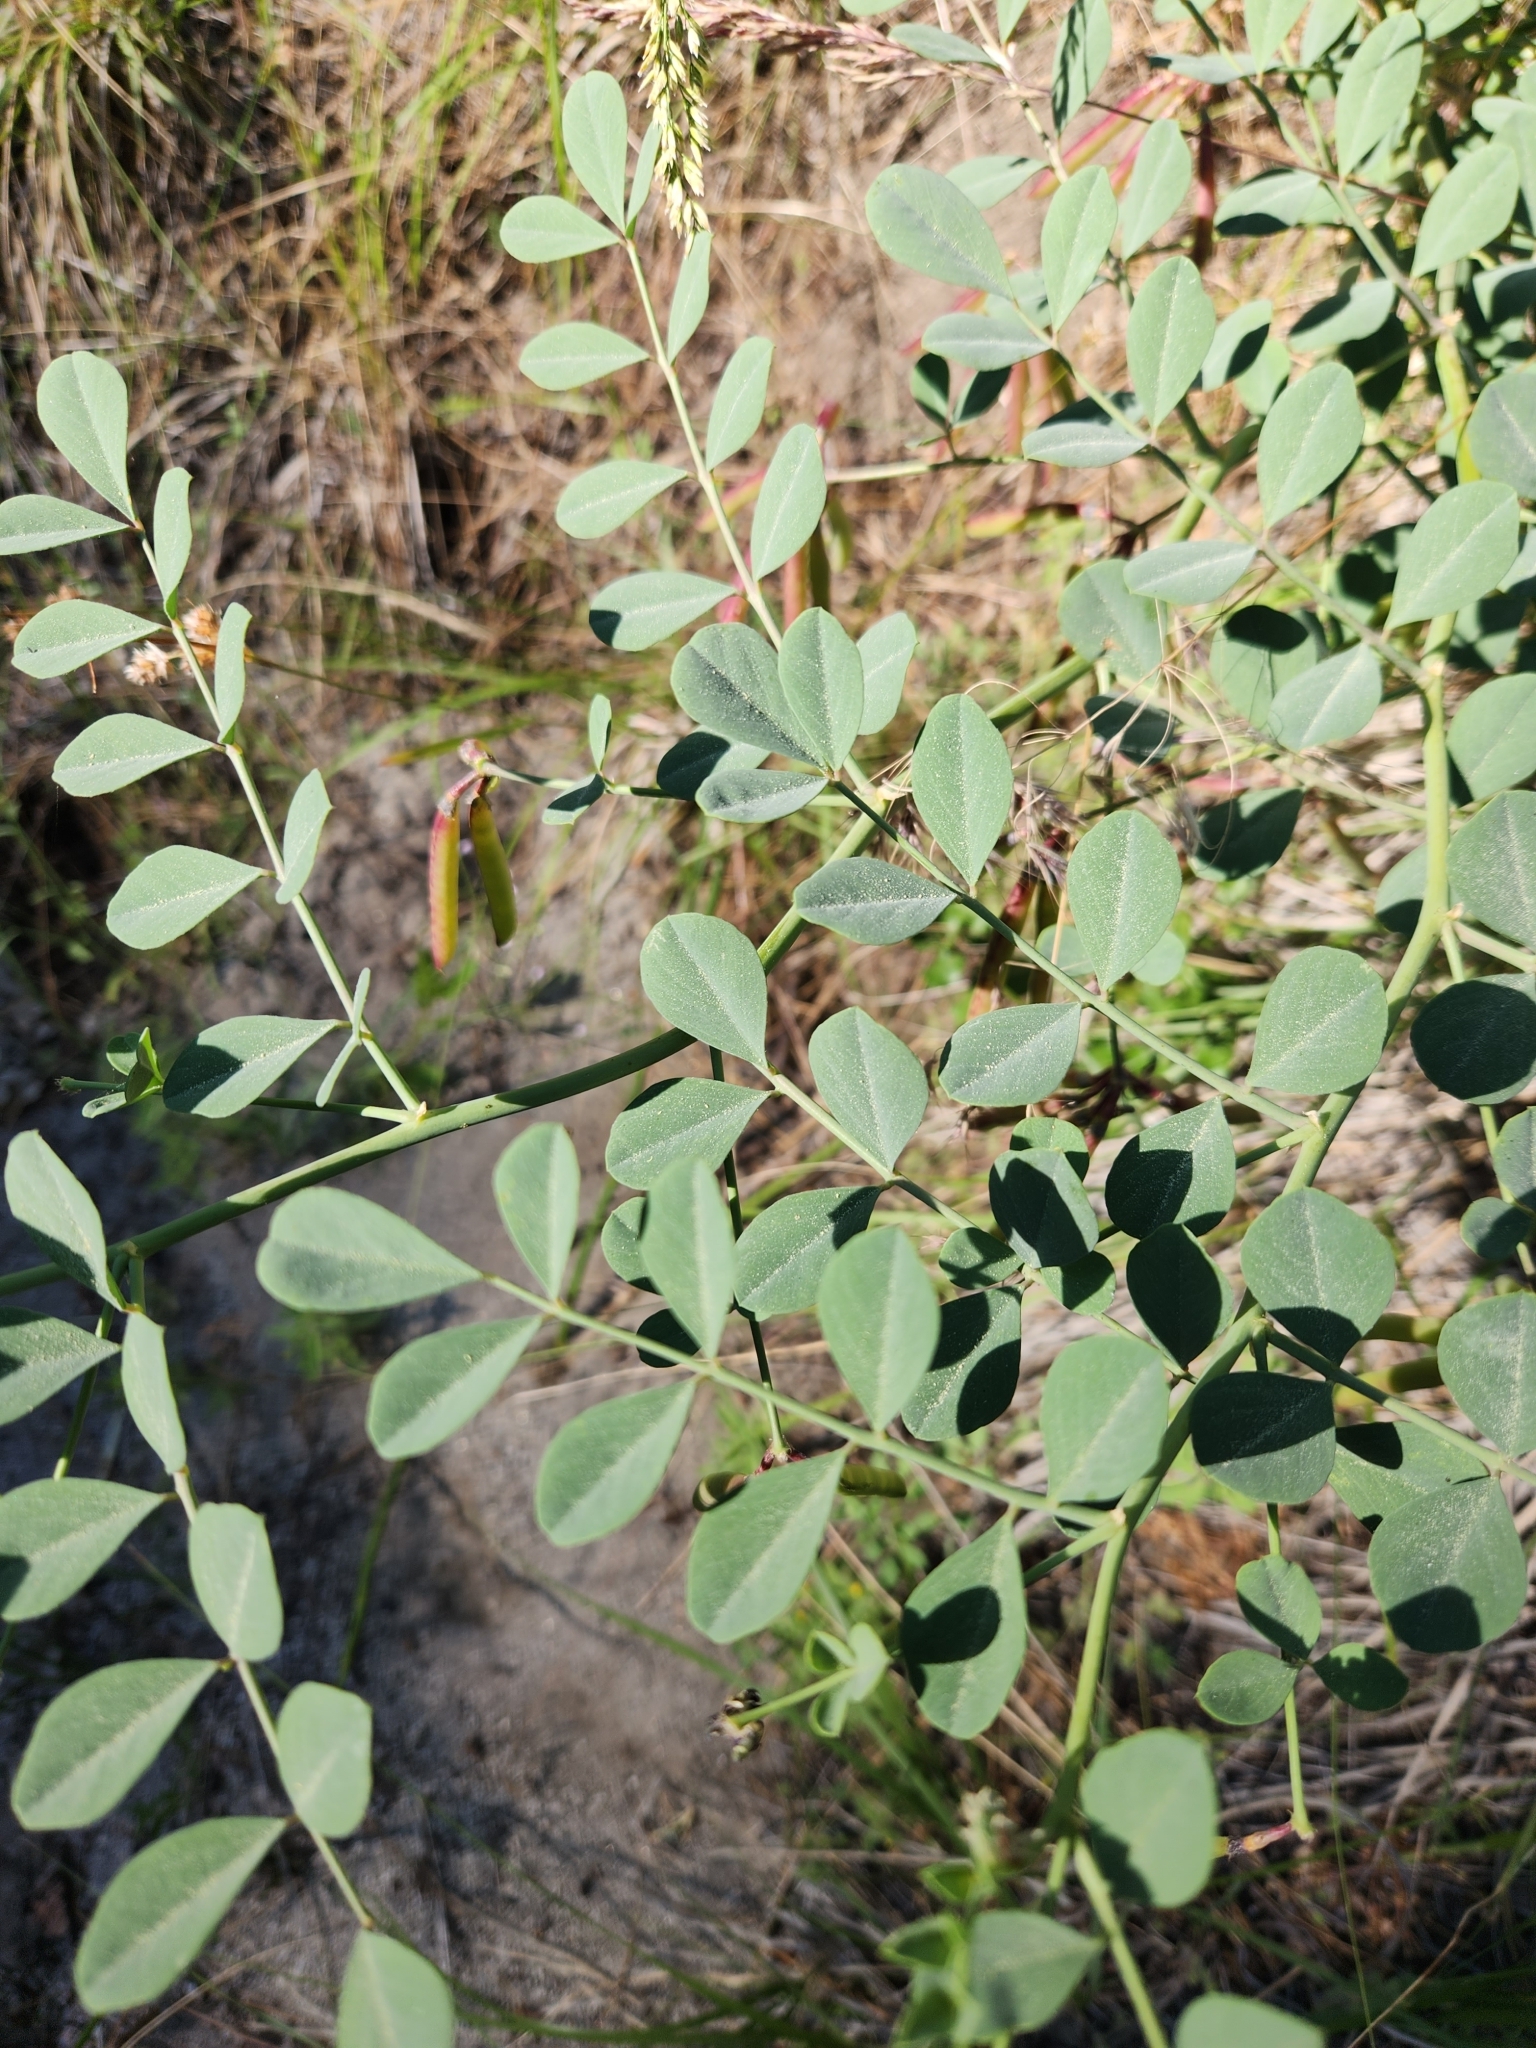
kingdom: Plantae
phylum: Tracheophyta
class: Magnoliopsida
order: Fabales
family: Fabaceae
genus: Hosackia
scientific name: Hosackia crassifolia
